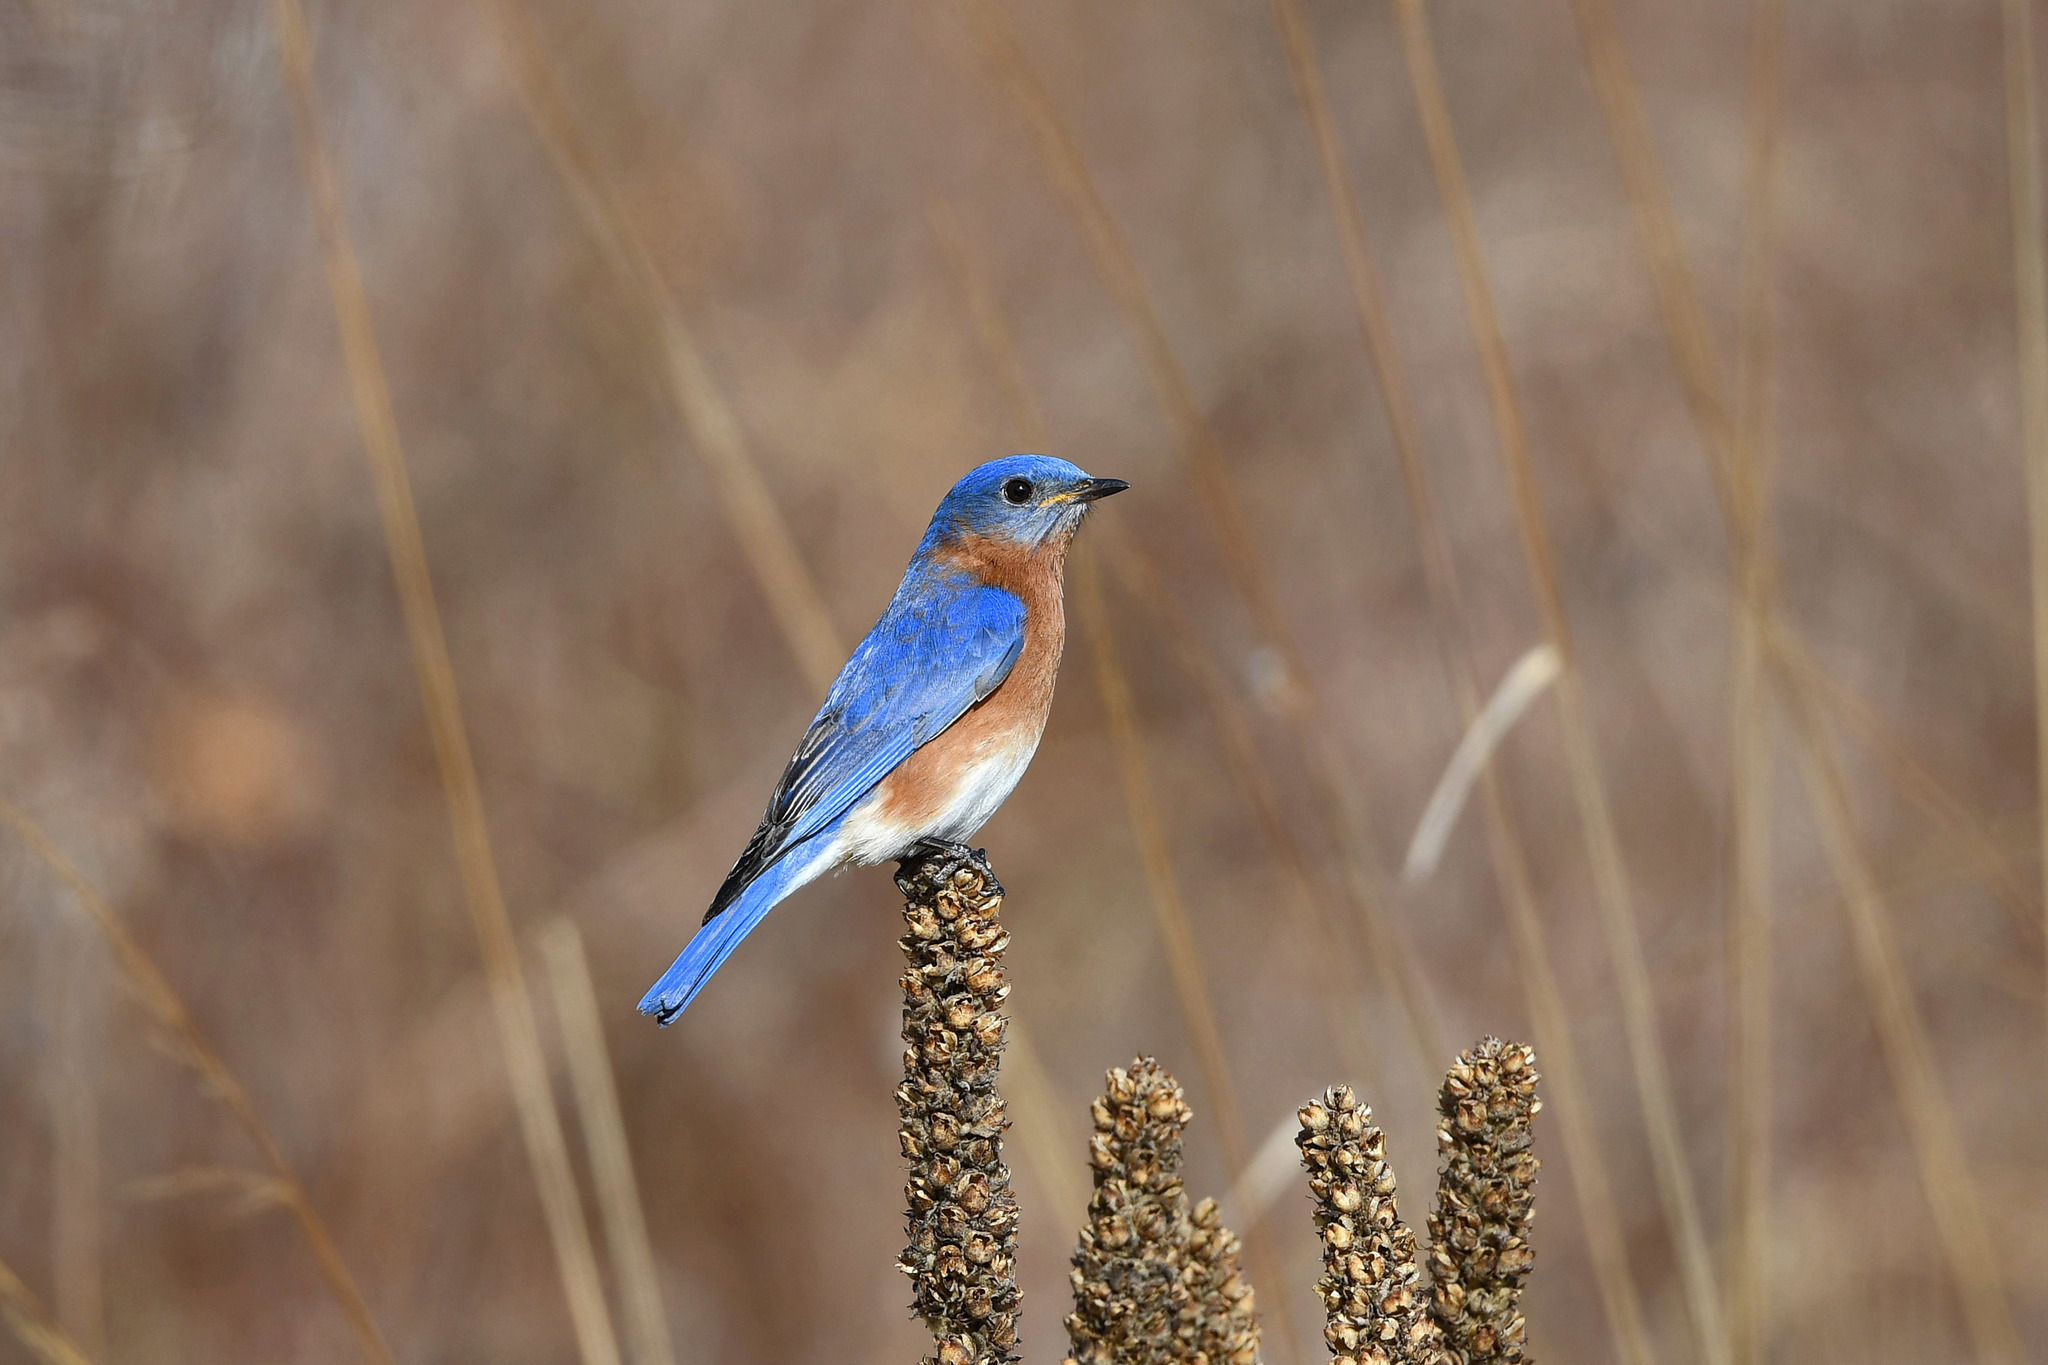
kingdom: Animalia
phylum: Chordata
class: Aves
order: Passeriformes
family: Turdidae
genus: Sialia
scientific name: Sialia sialis
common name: Eastern bluebird
